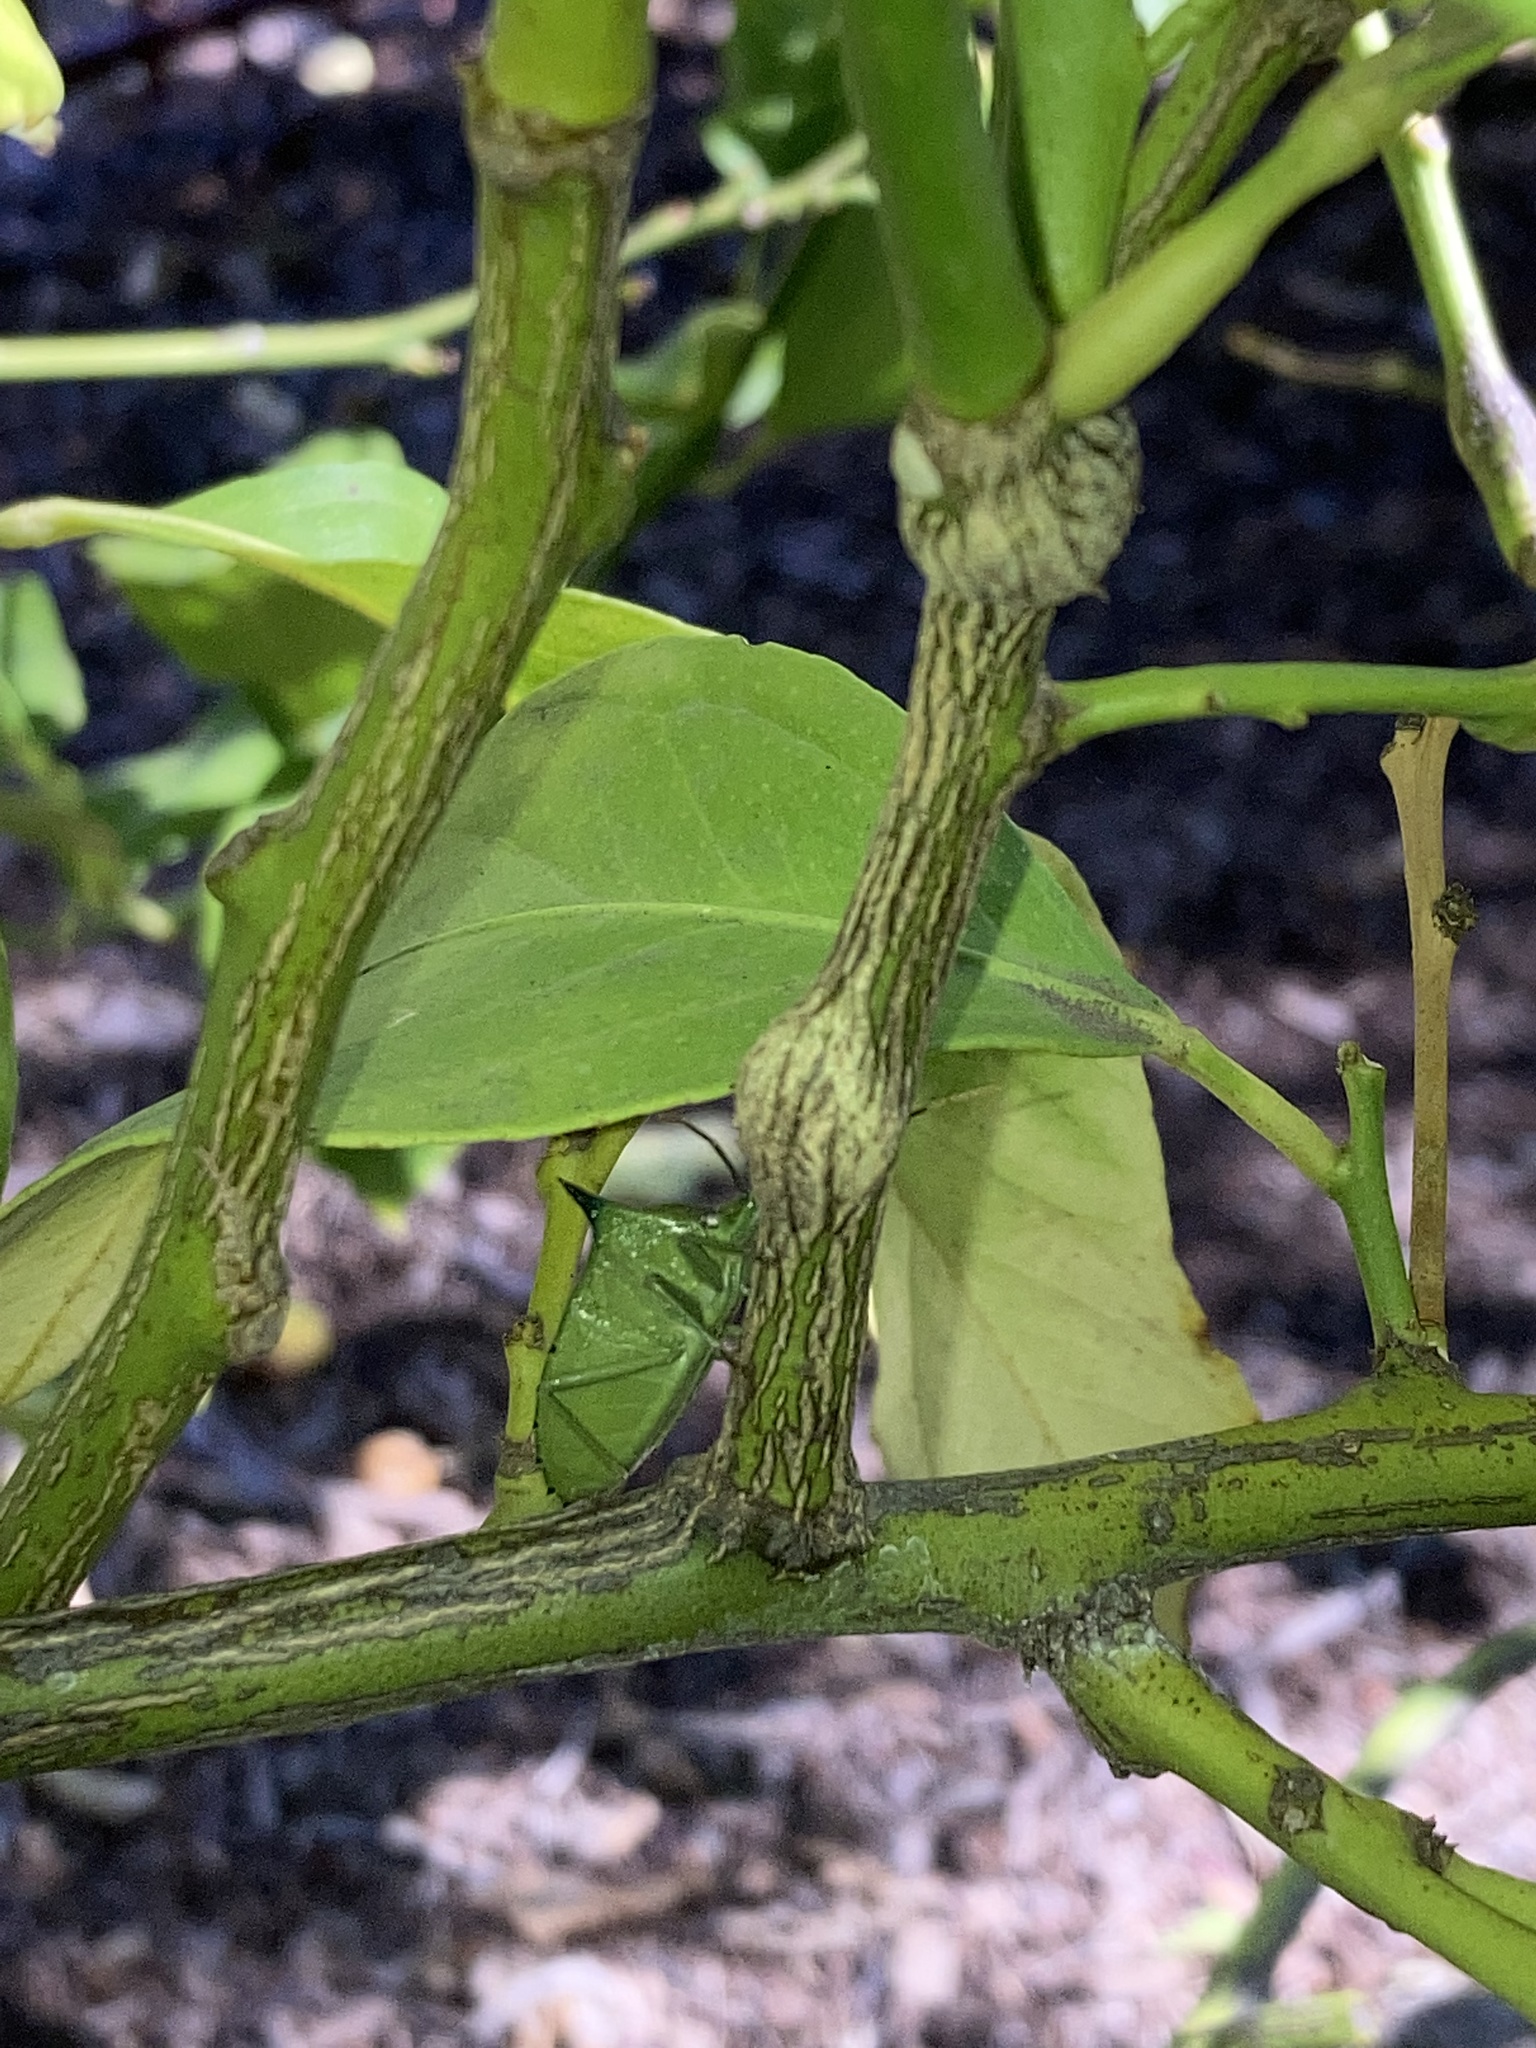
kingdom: Animalia
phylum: Arthropoda
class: Insecta
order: Hemiptera
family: Pentatomidae
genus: Biprorulus
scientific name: Biprorulus
